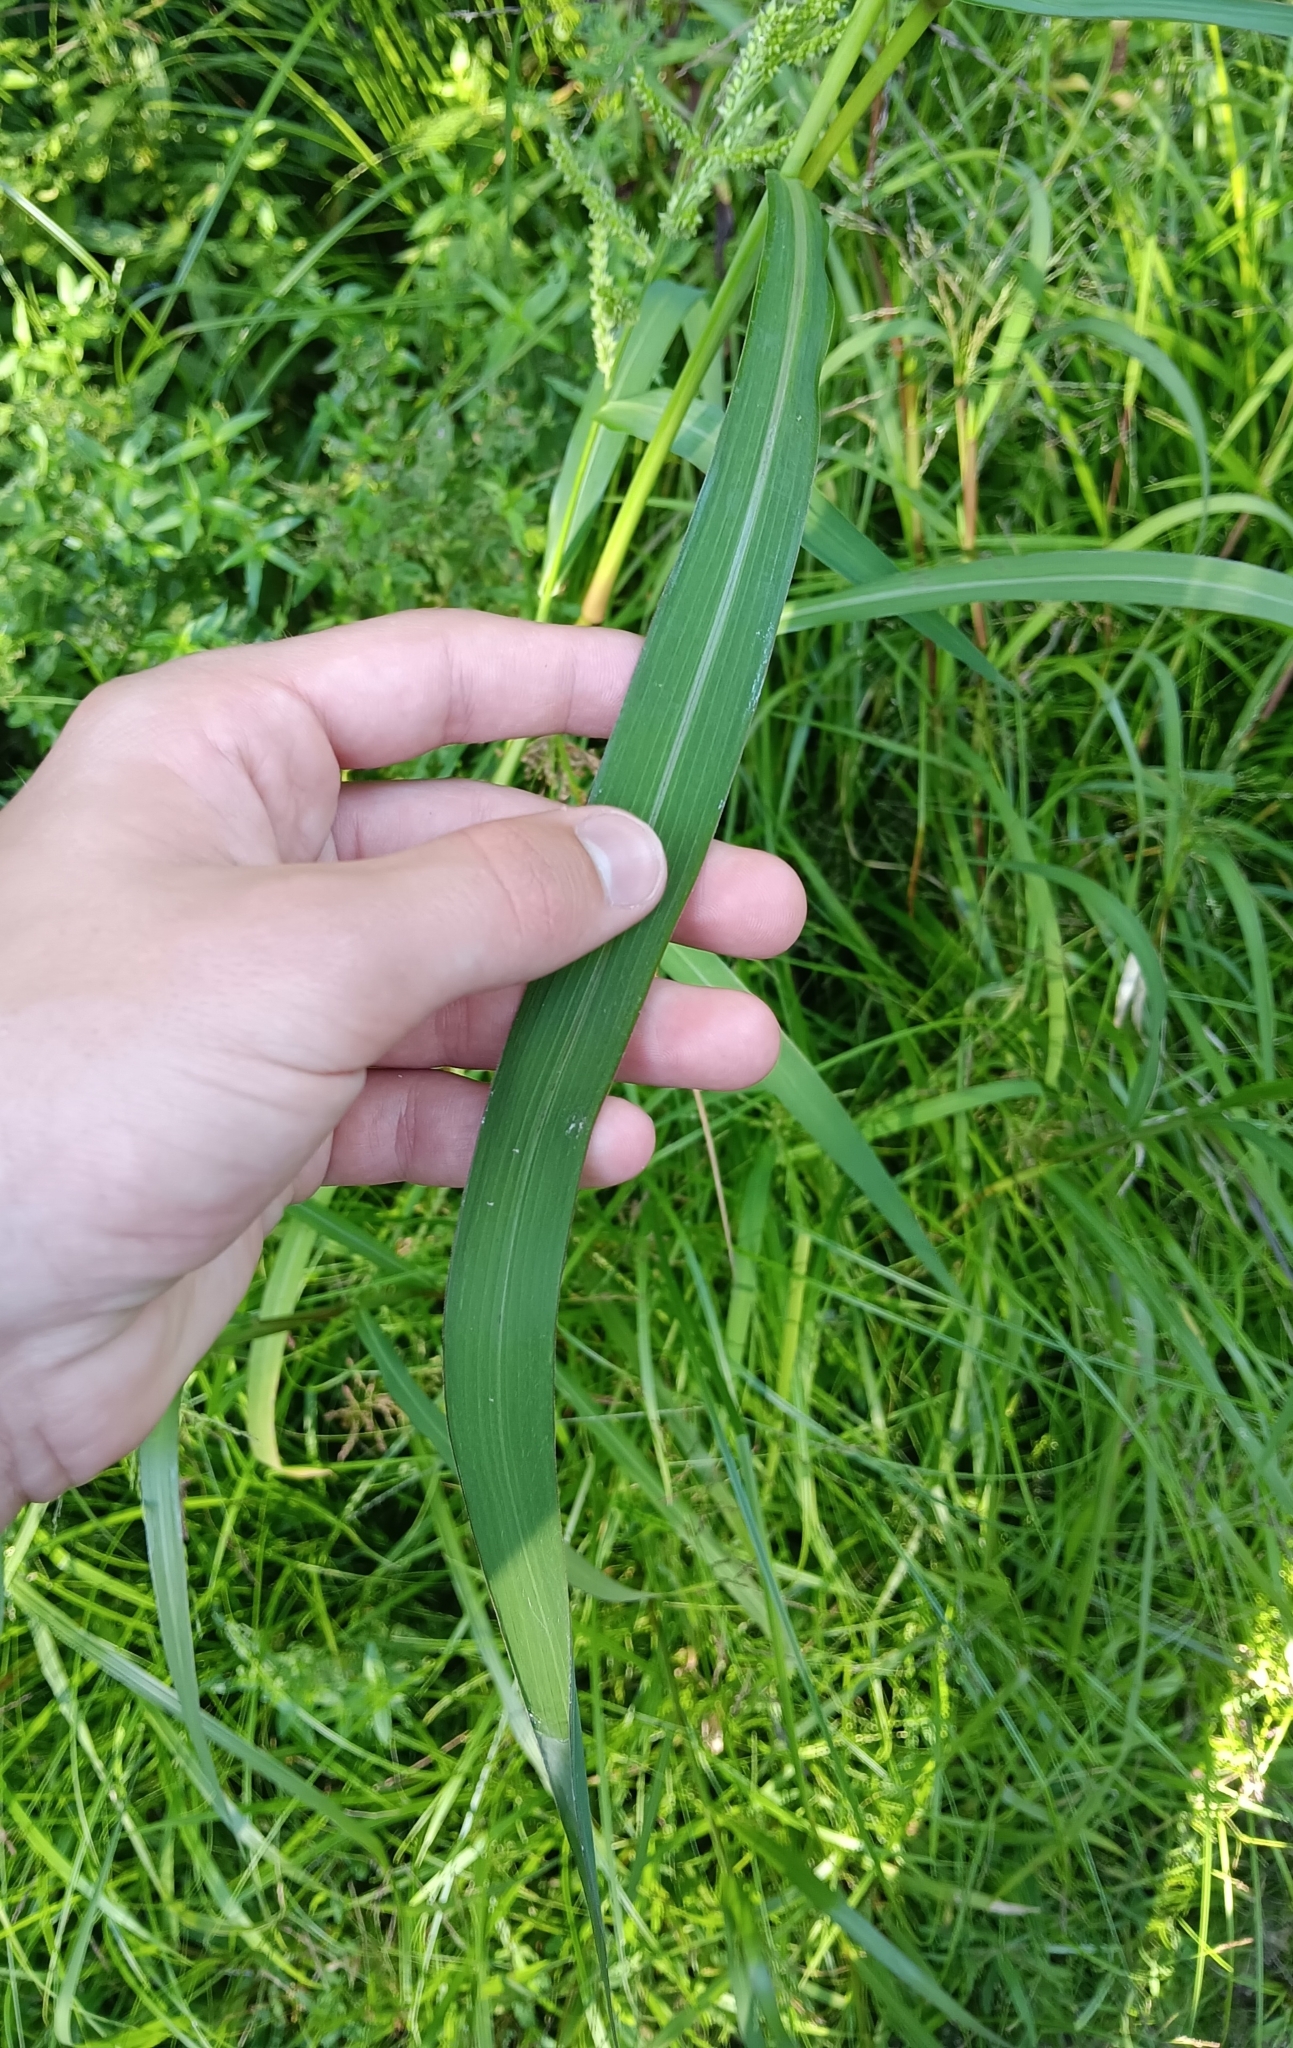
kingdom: Plantae
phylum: Tracheophyta
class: Liliopsida
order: Poales
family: Poaceae
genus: Echinochloa
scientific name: Echinochloa crus-galli
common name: Cockspur
